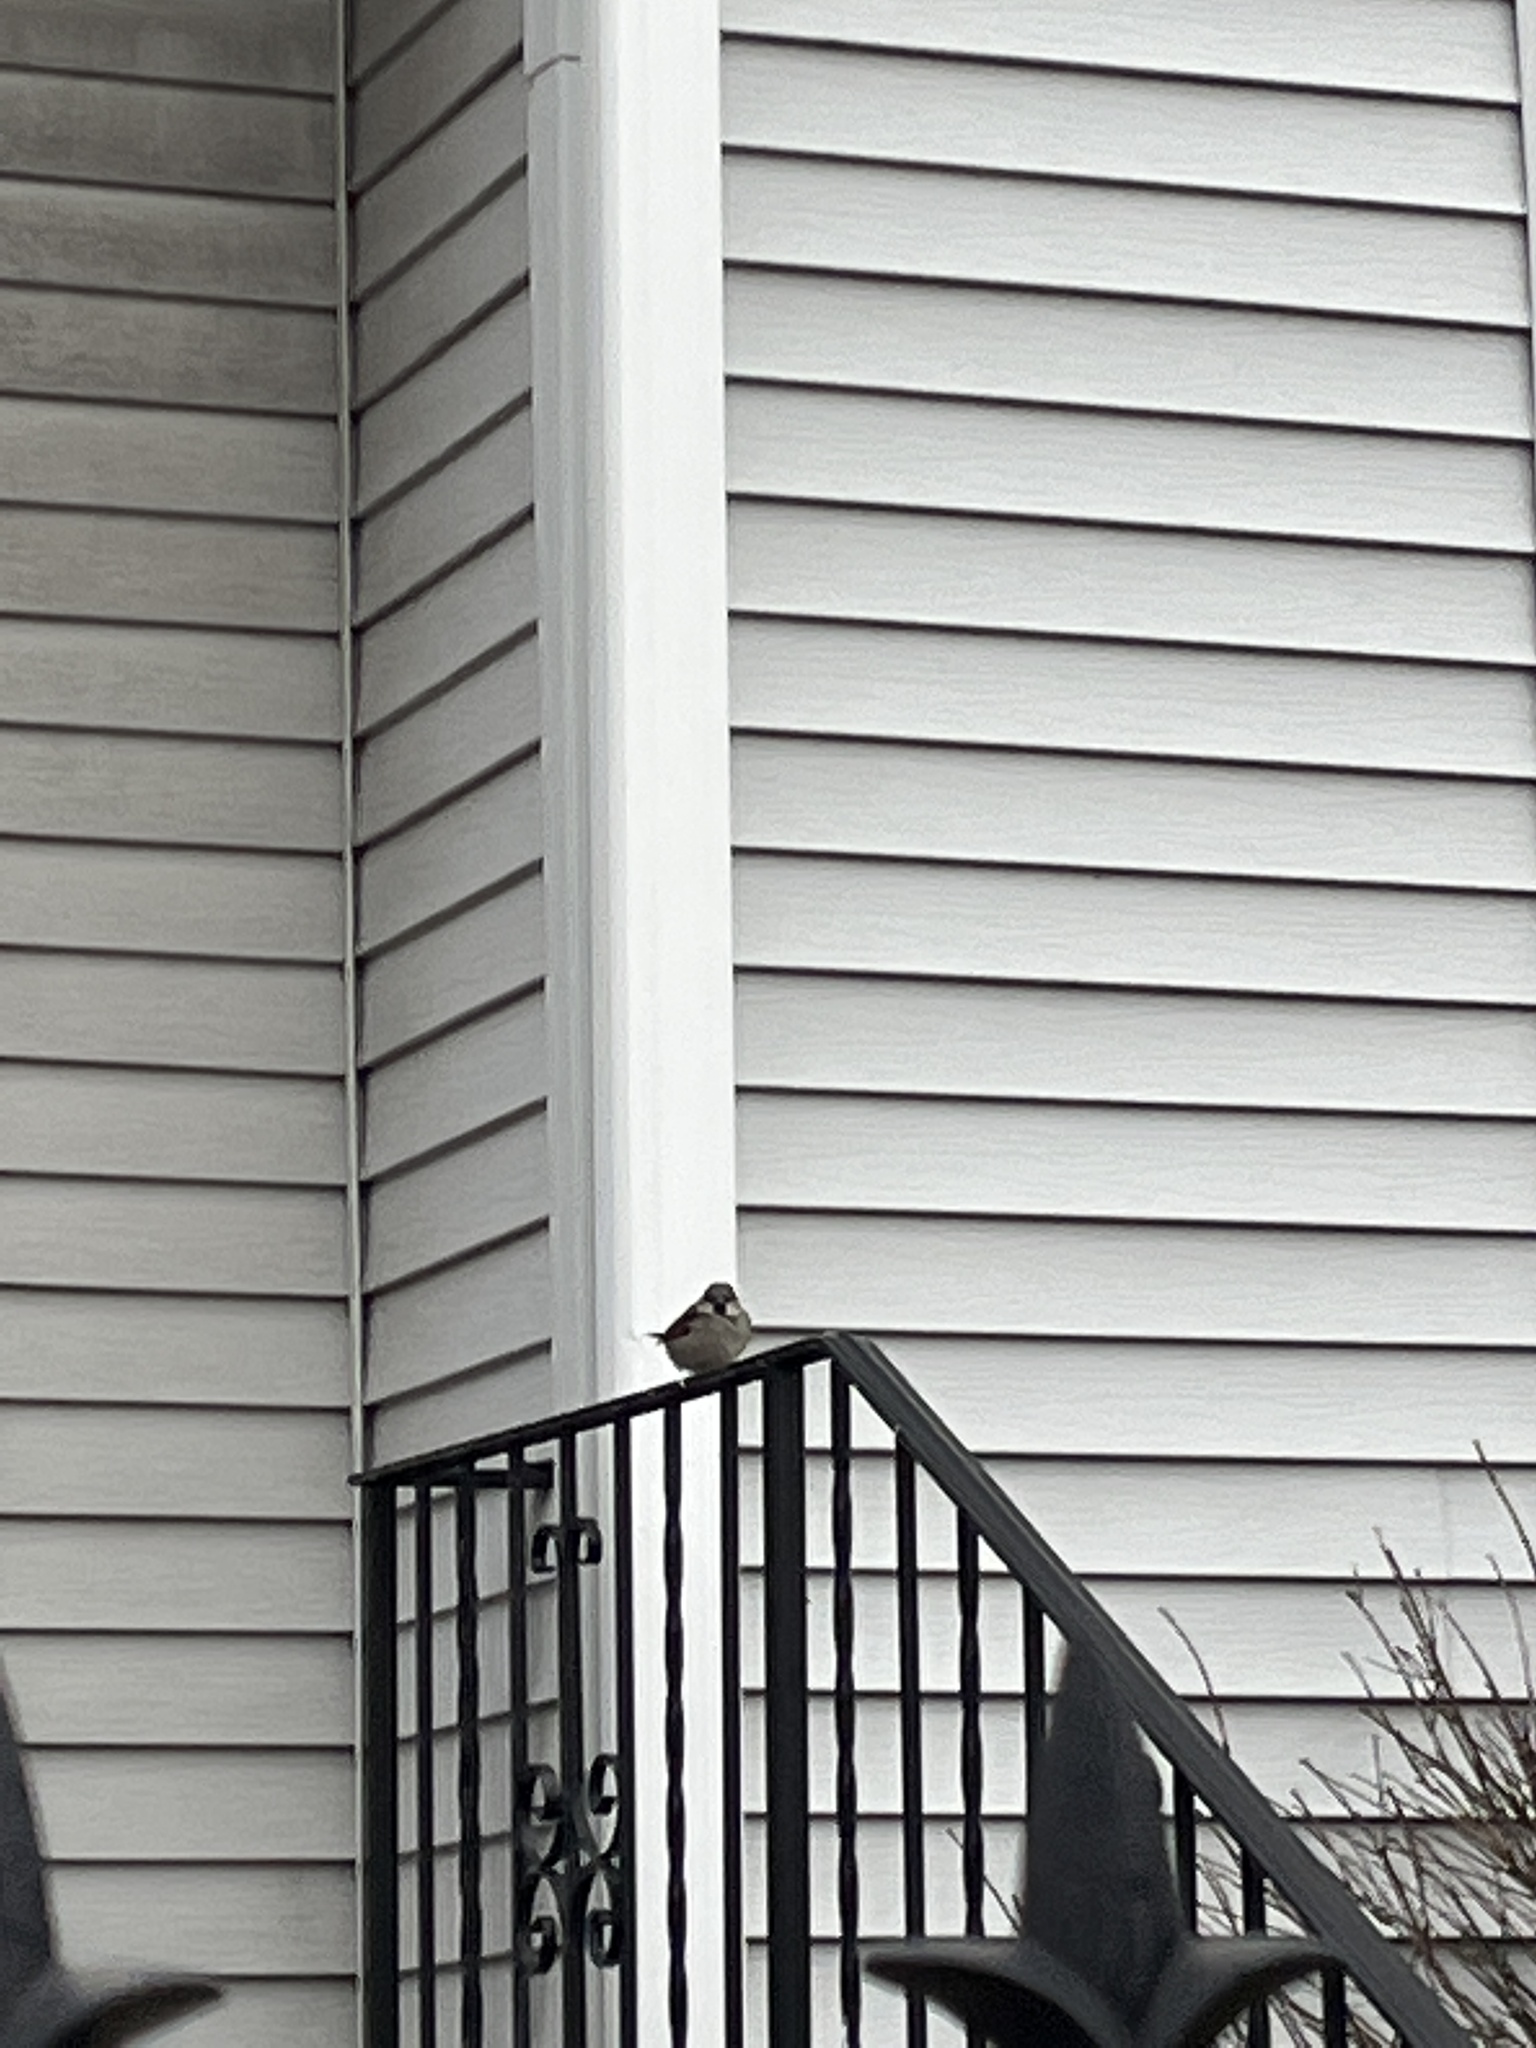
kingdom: Animalia
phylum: Chordata
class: Aves
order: Passeriformes
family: Passeridae
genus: Passer
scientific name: Passer domesticus
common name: House sparrow
